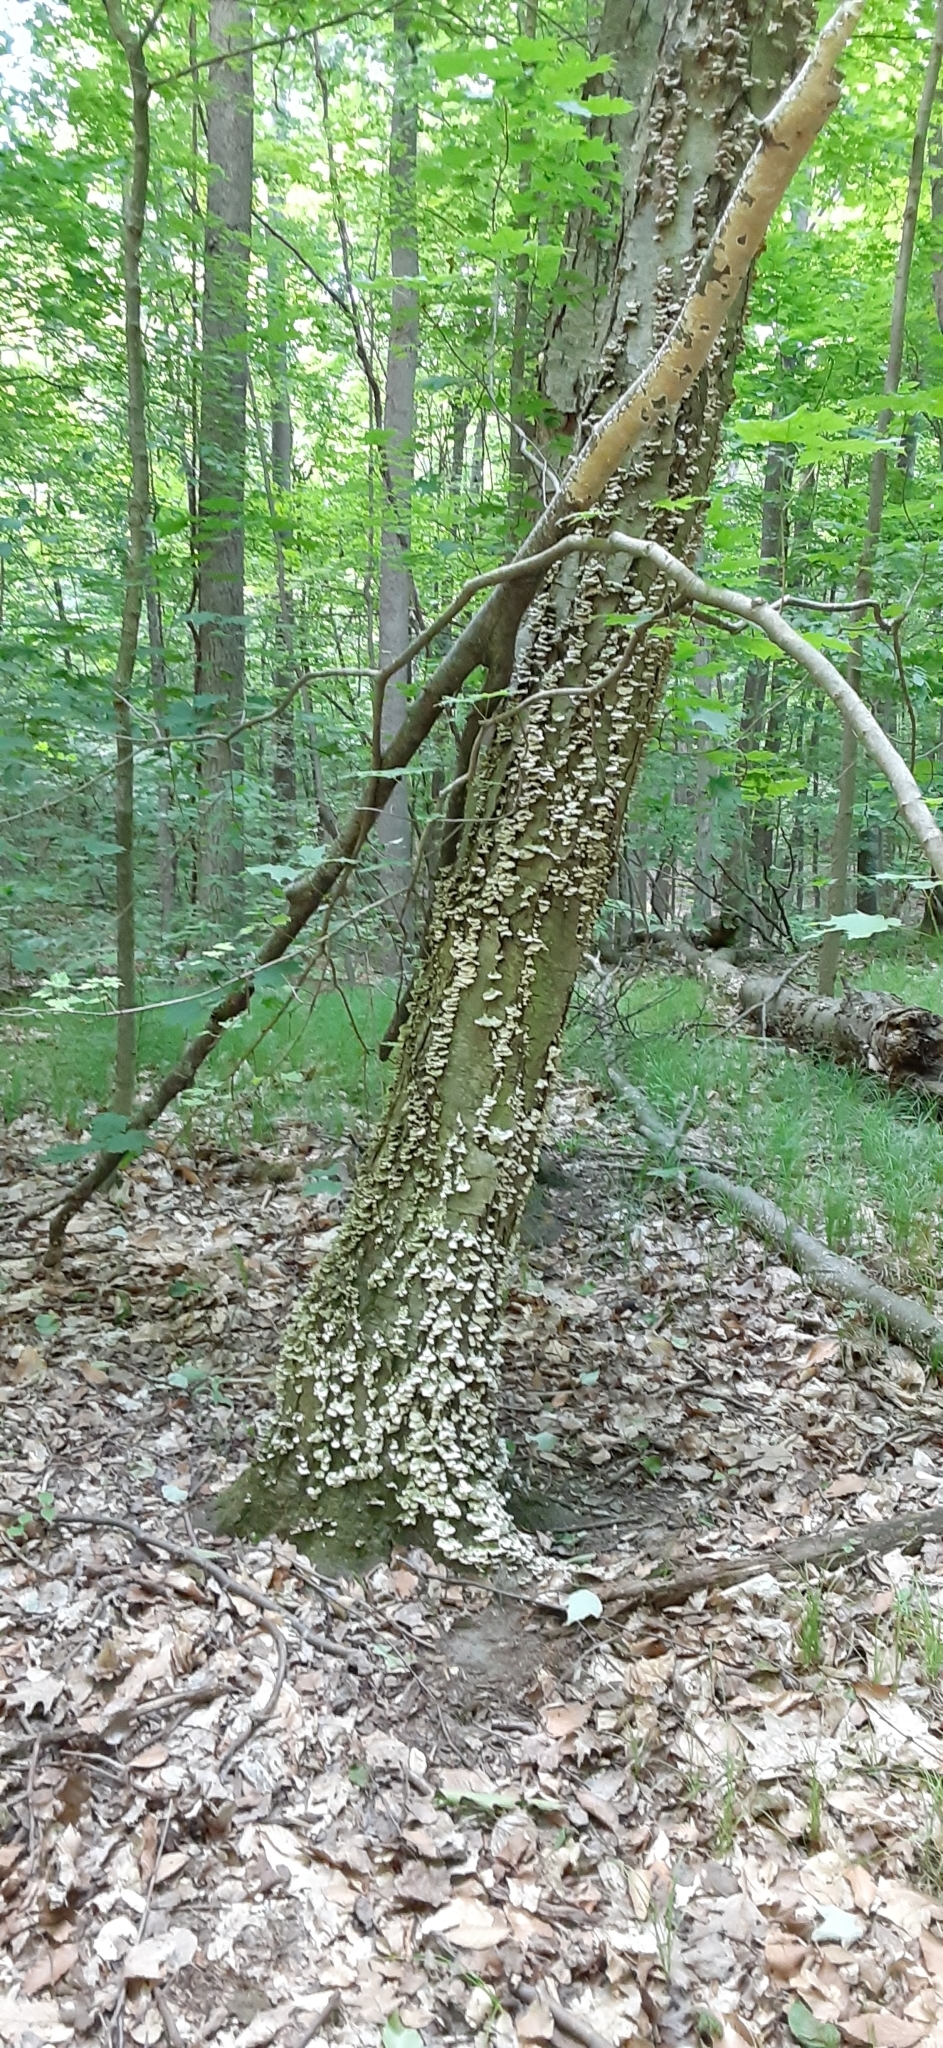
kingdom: Fungi
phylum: Basidiomycota
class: Agaricomycetes
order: Hymenochaetales
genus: Trichaptum
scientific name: Trichaptum biforme
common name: Violet-toothed polypore
